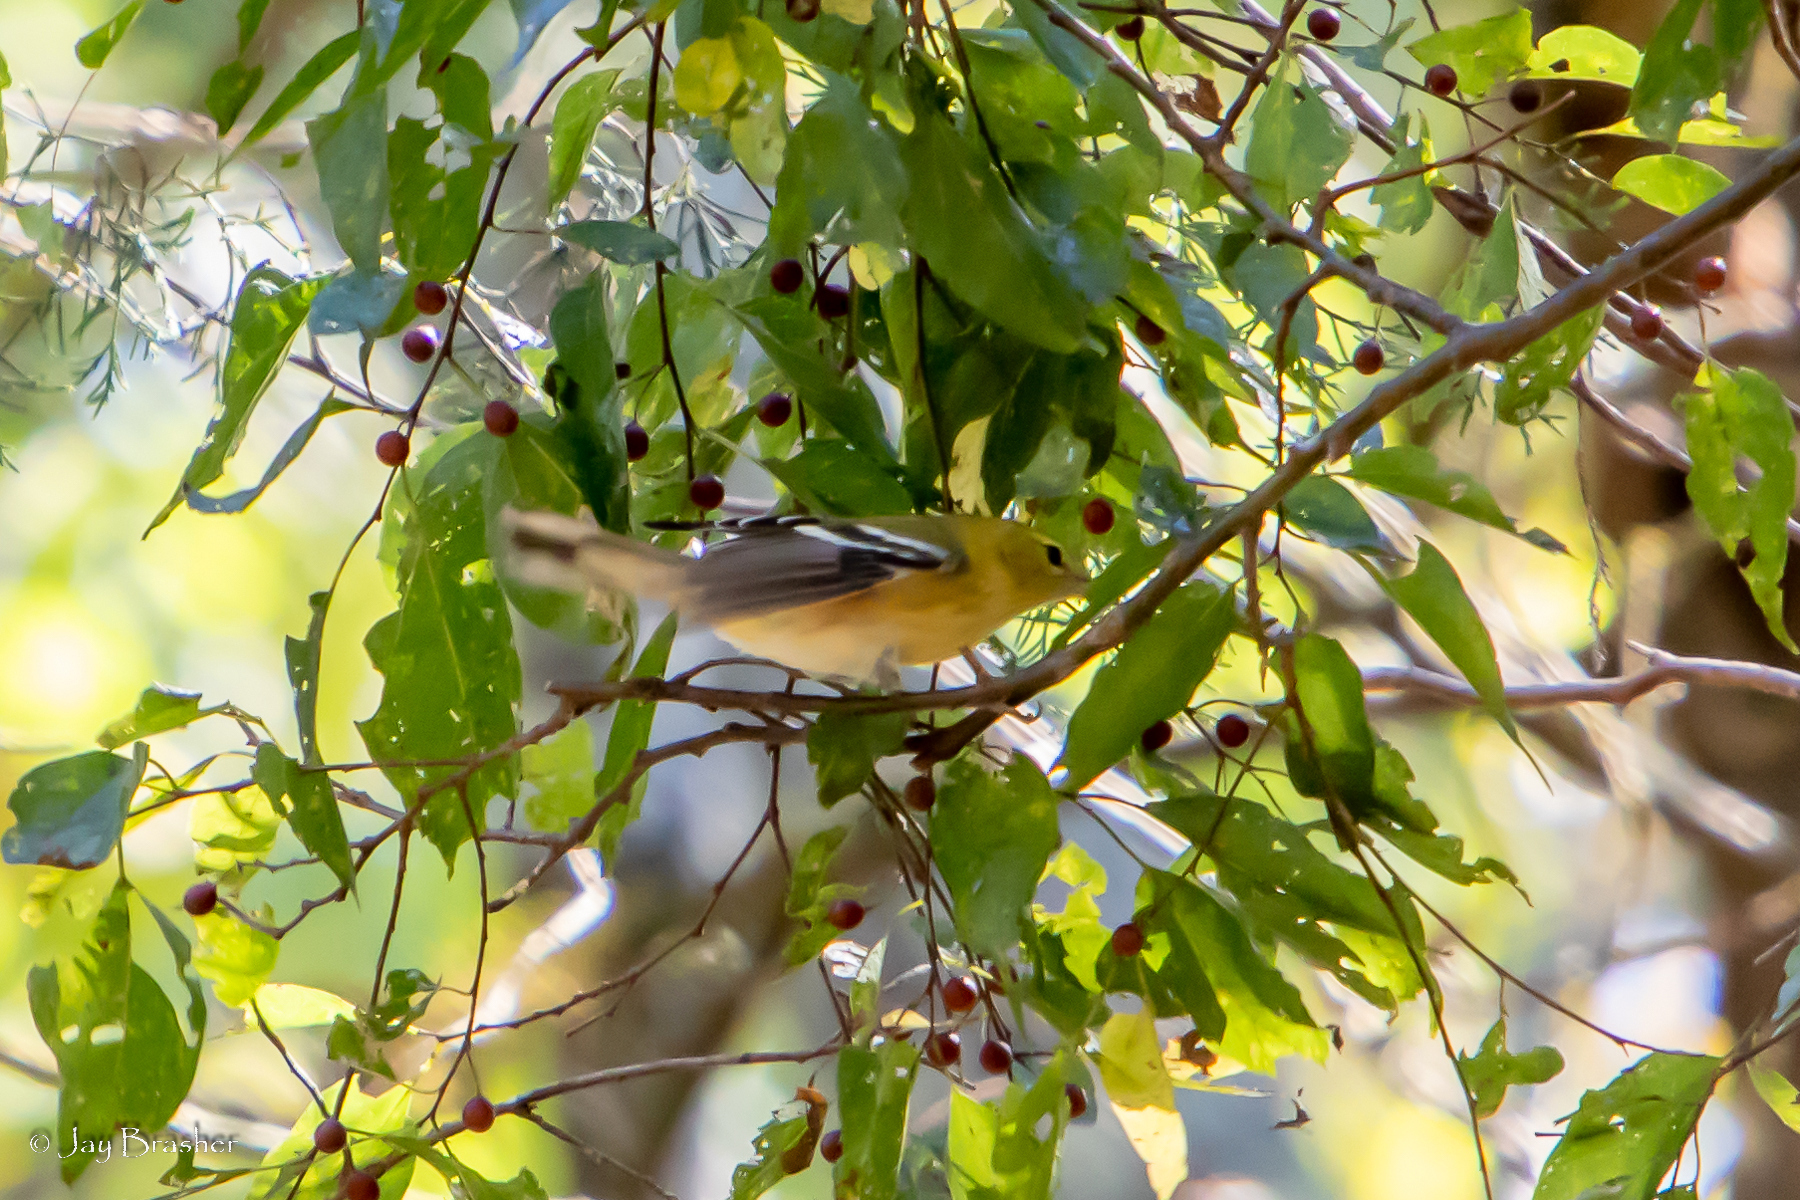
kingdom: Animalia
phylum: Chordata
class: Aves
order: Passeriformes
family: Parulidae
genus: Setophaga
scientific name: Setophaga castanea
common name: Bay-breasted warbler
